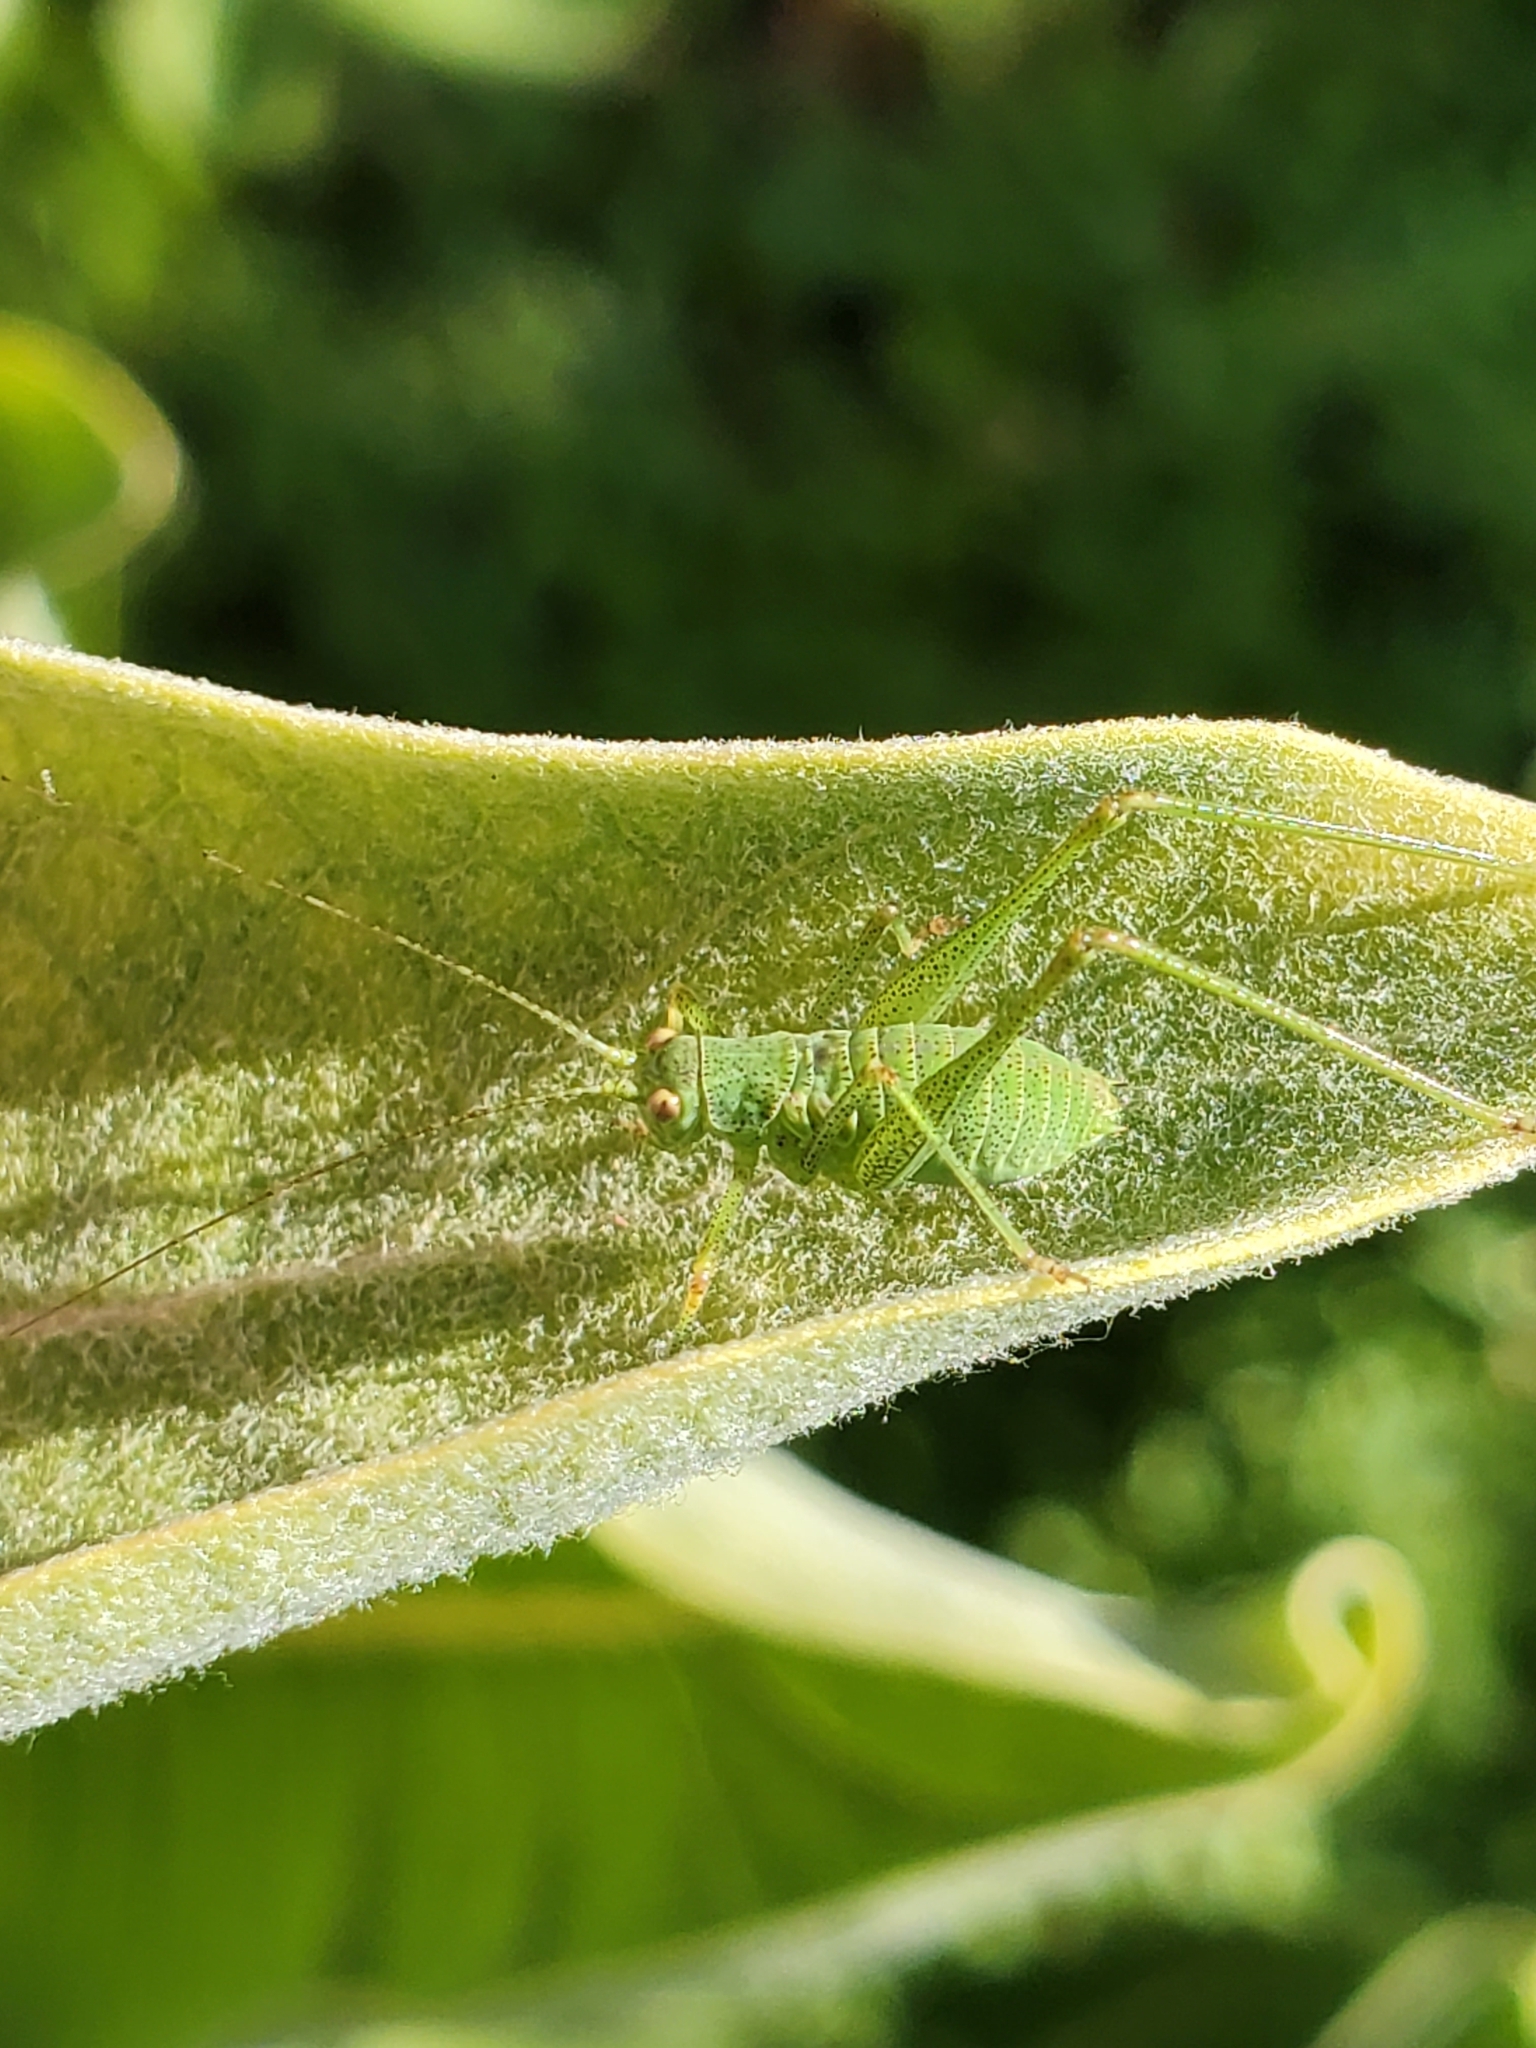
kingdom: Animalia
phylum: Arthropoda
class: Insecta
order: Orthoptera
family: Tettigoniidae
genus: Phaneroptera
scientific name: Phaneroptera nana
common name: Southern sickle bush-cricket
